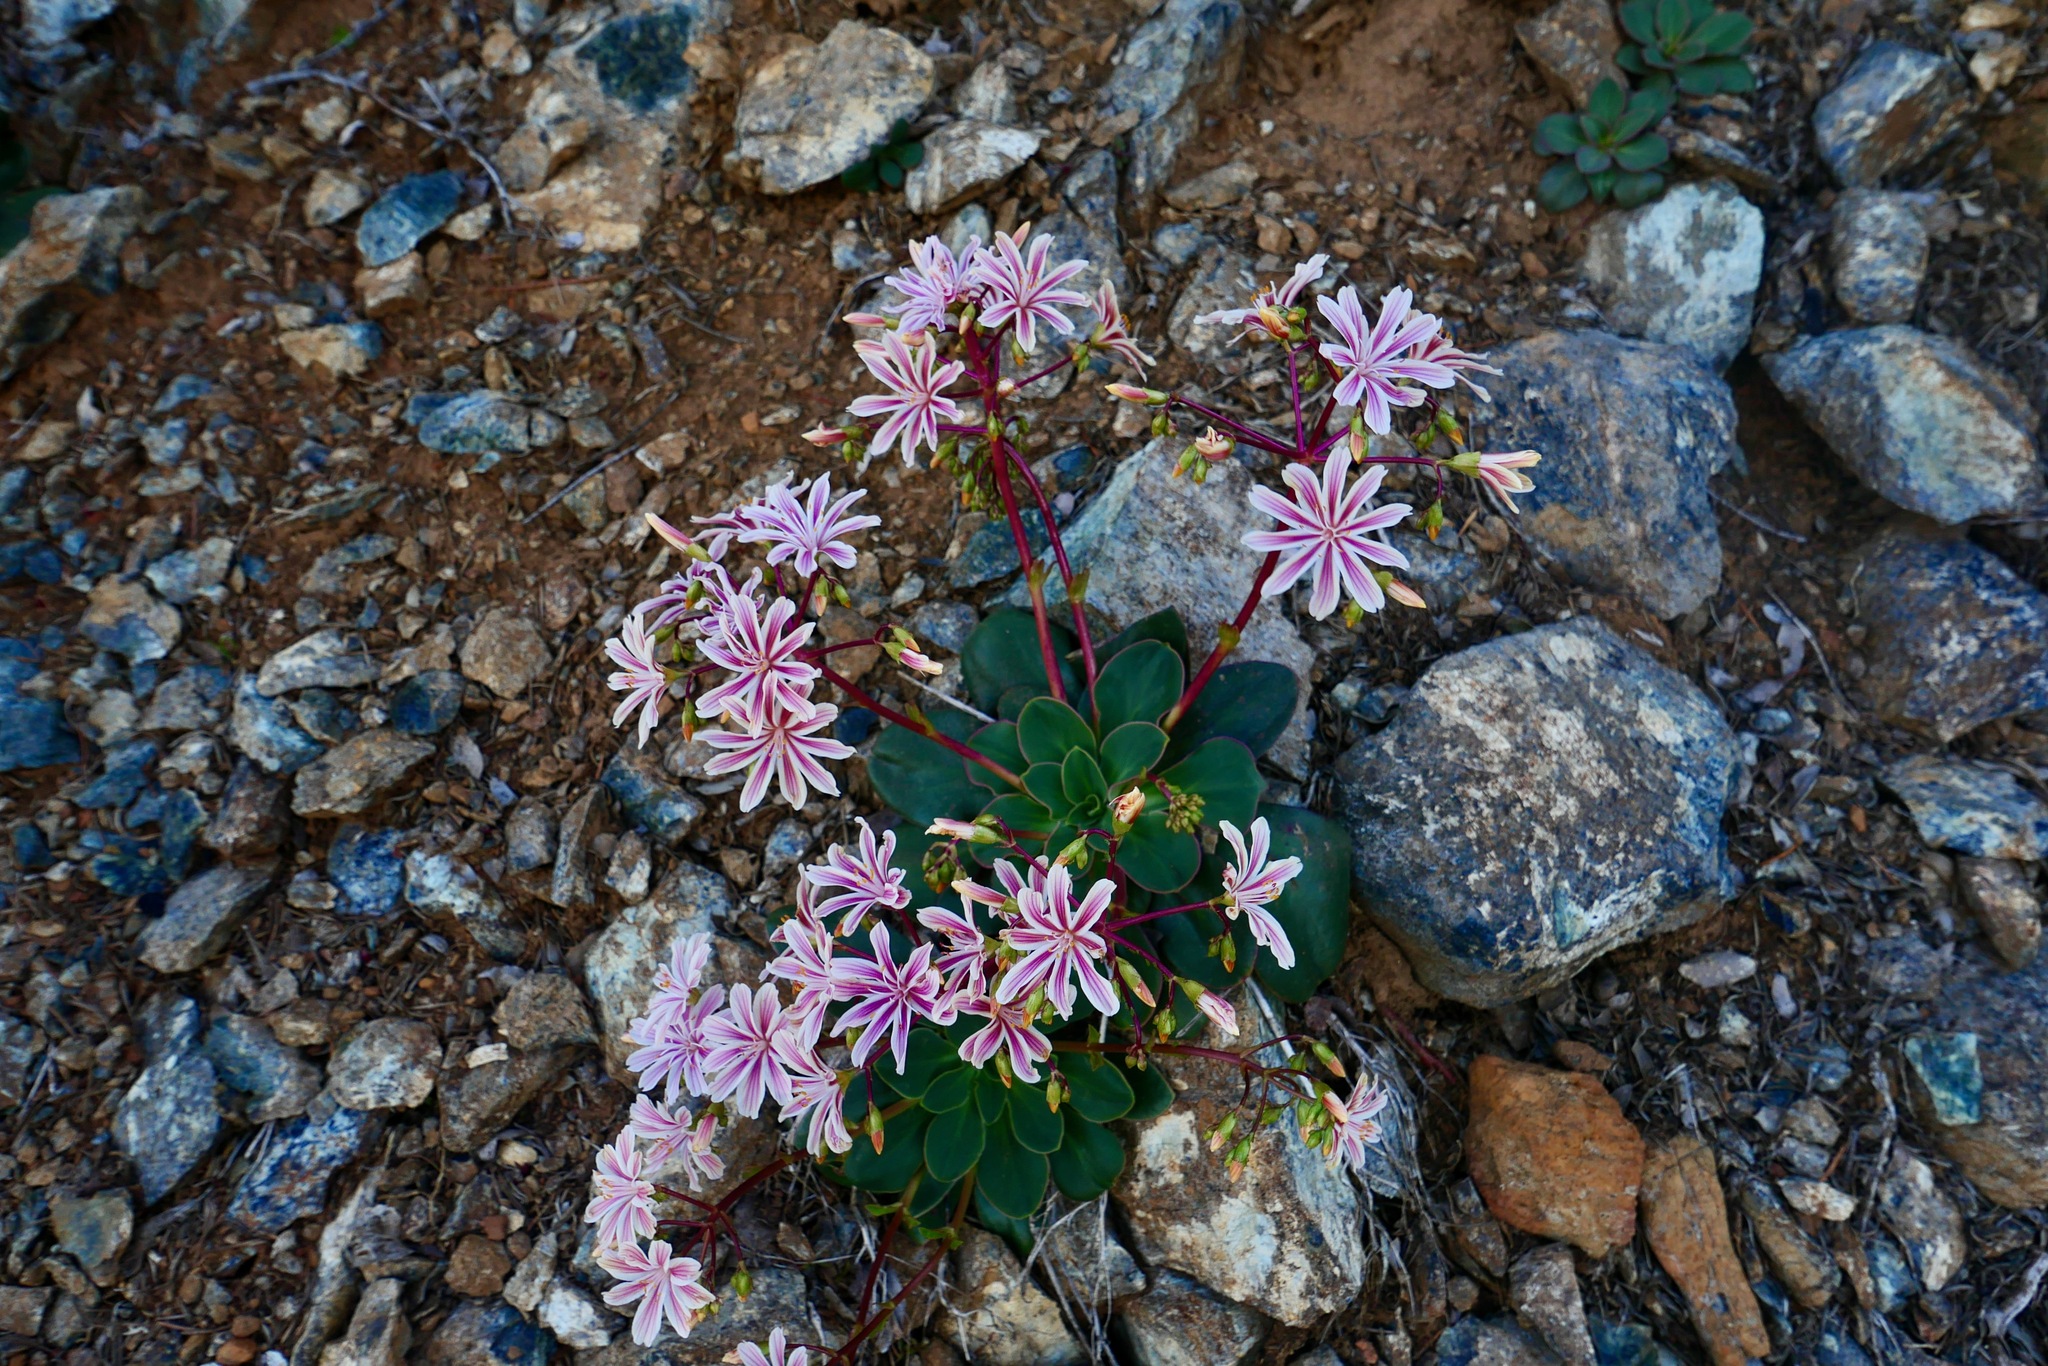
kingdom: Plantae
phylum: Tracheophyta
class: Magnoliopsida
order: Caryophyllales
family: Montiaceae
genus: Lewisia
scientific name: Lewisia cotyledon
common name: Siskiyou lewisia
